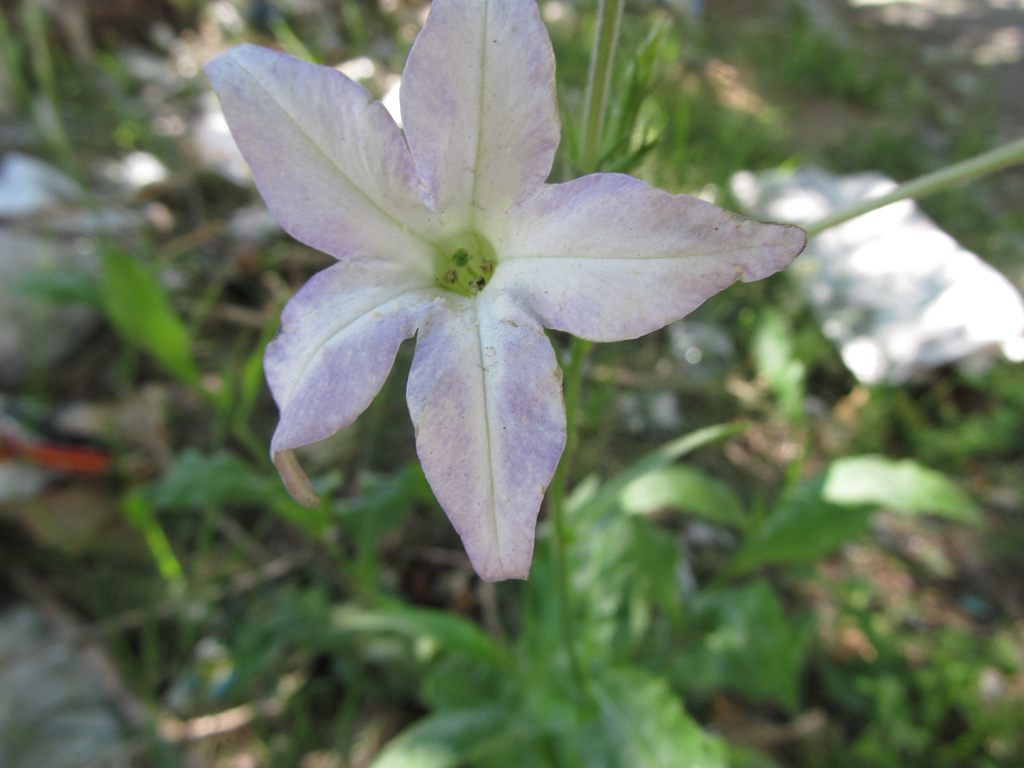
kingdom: Plantae
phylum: Tracheophyta
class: Magnoliopsida
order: Solanales
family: Solanaceae
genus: Nicotiana
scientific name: Nicotiana longiflora
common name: Long-flowered tobacco
